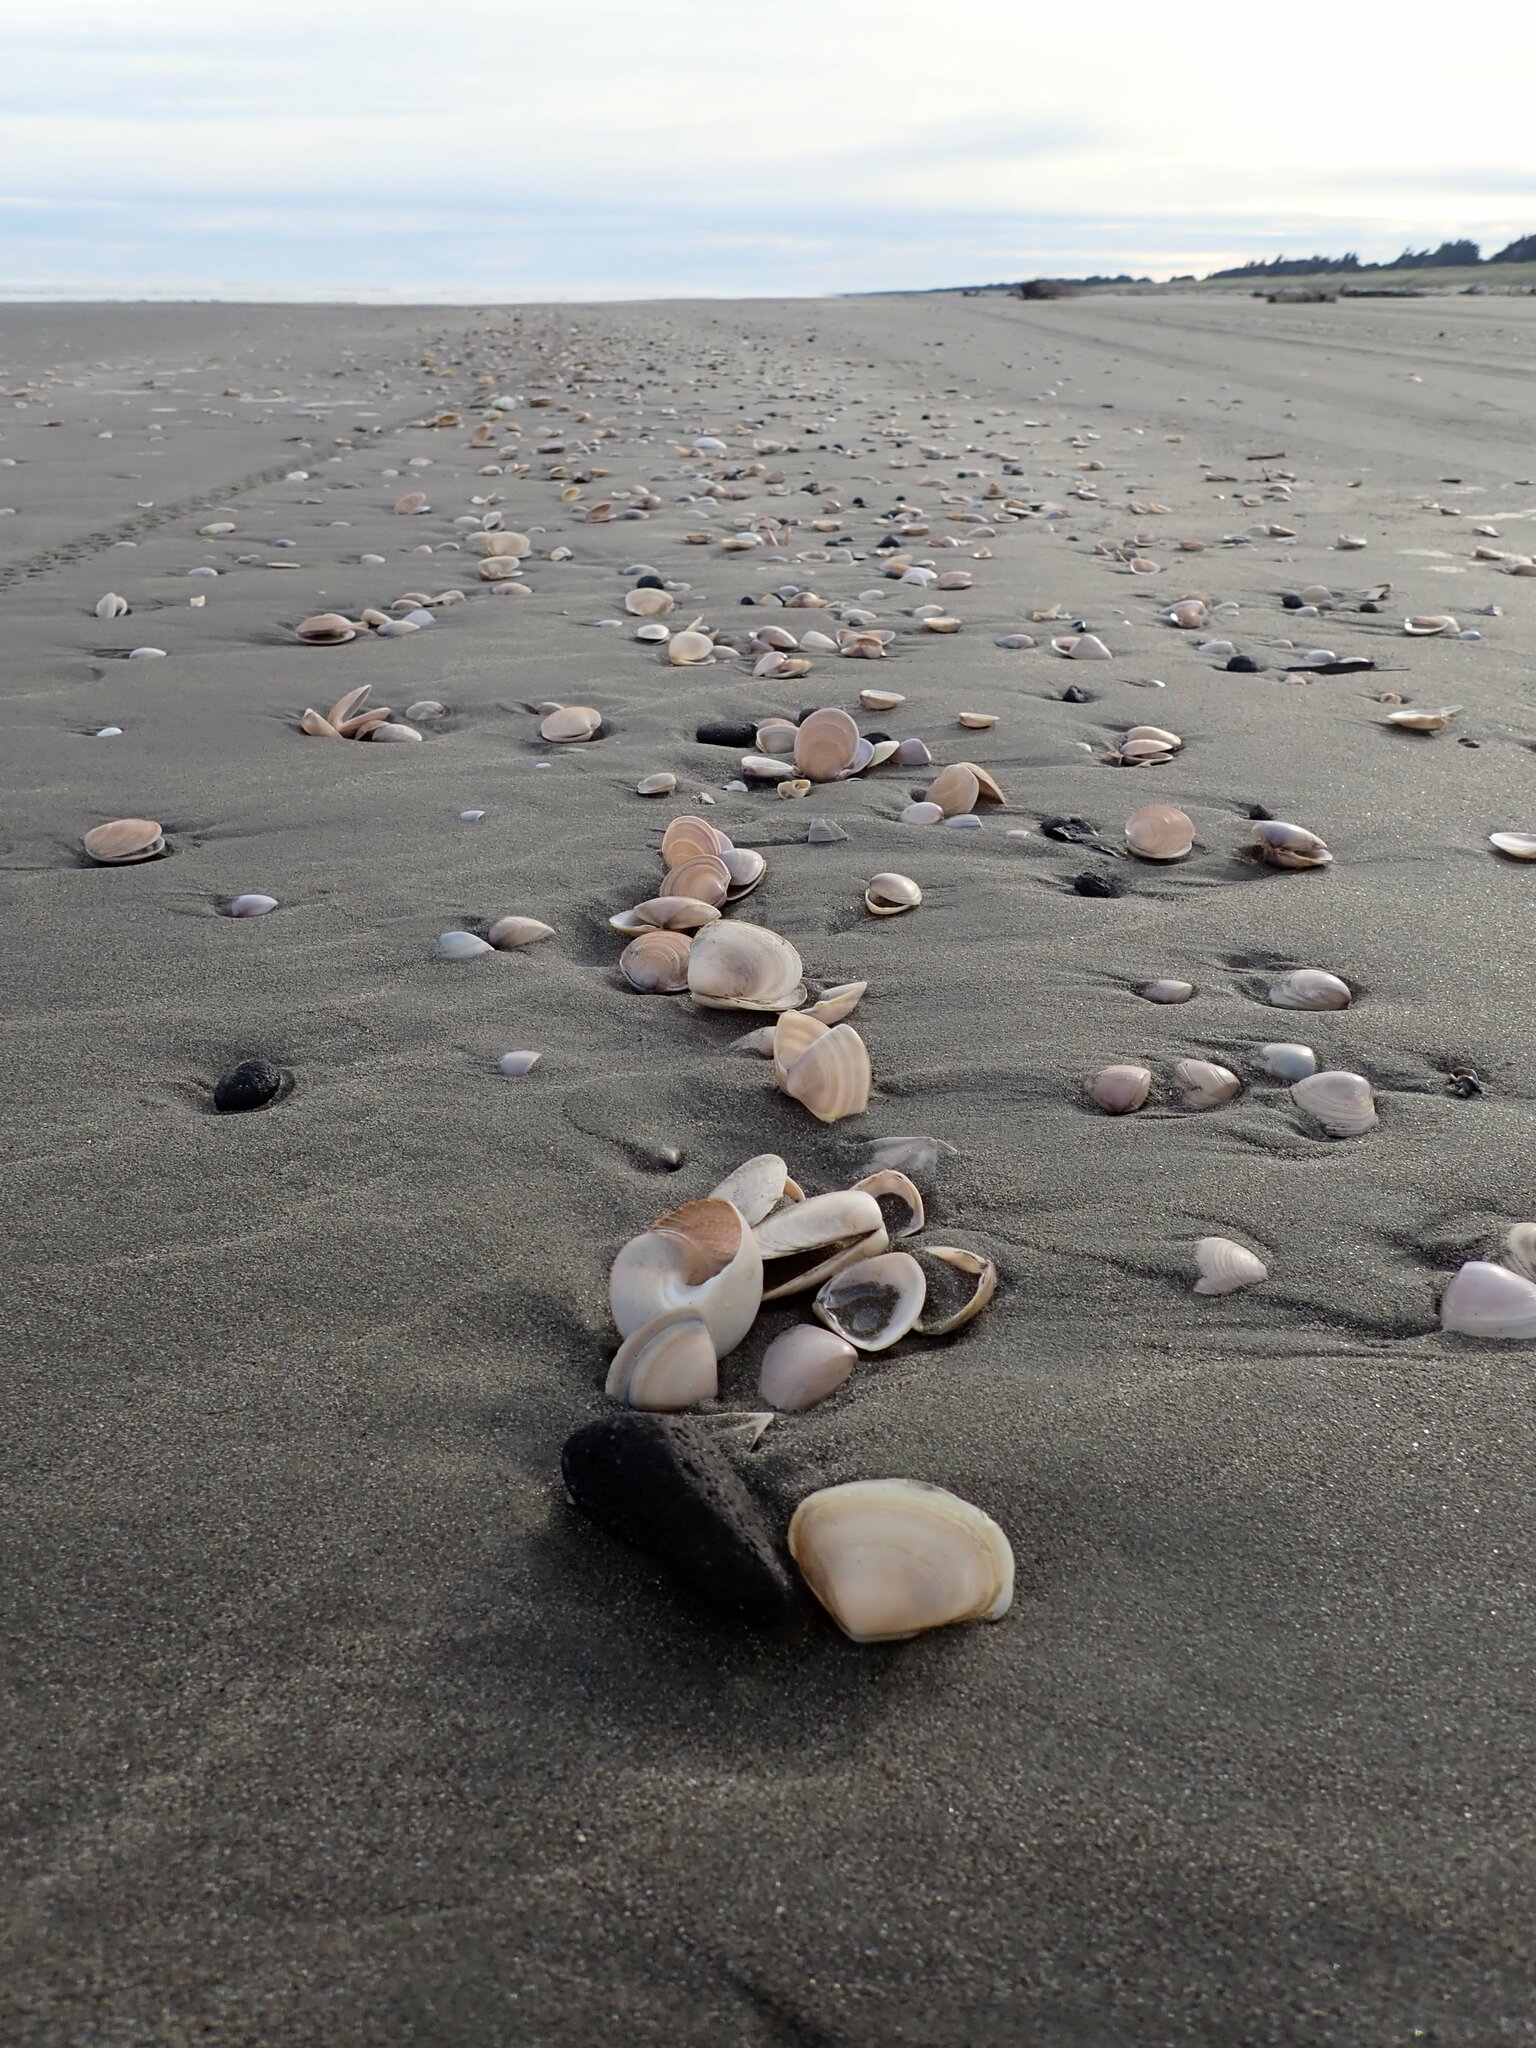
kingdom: Animalia
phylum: Mollusca
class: Gastropoda
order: Trochida
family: Calliostomatidae
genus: Maurea
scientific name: Maurea selecta
